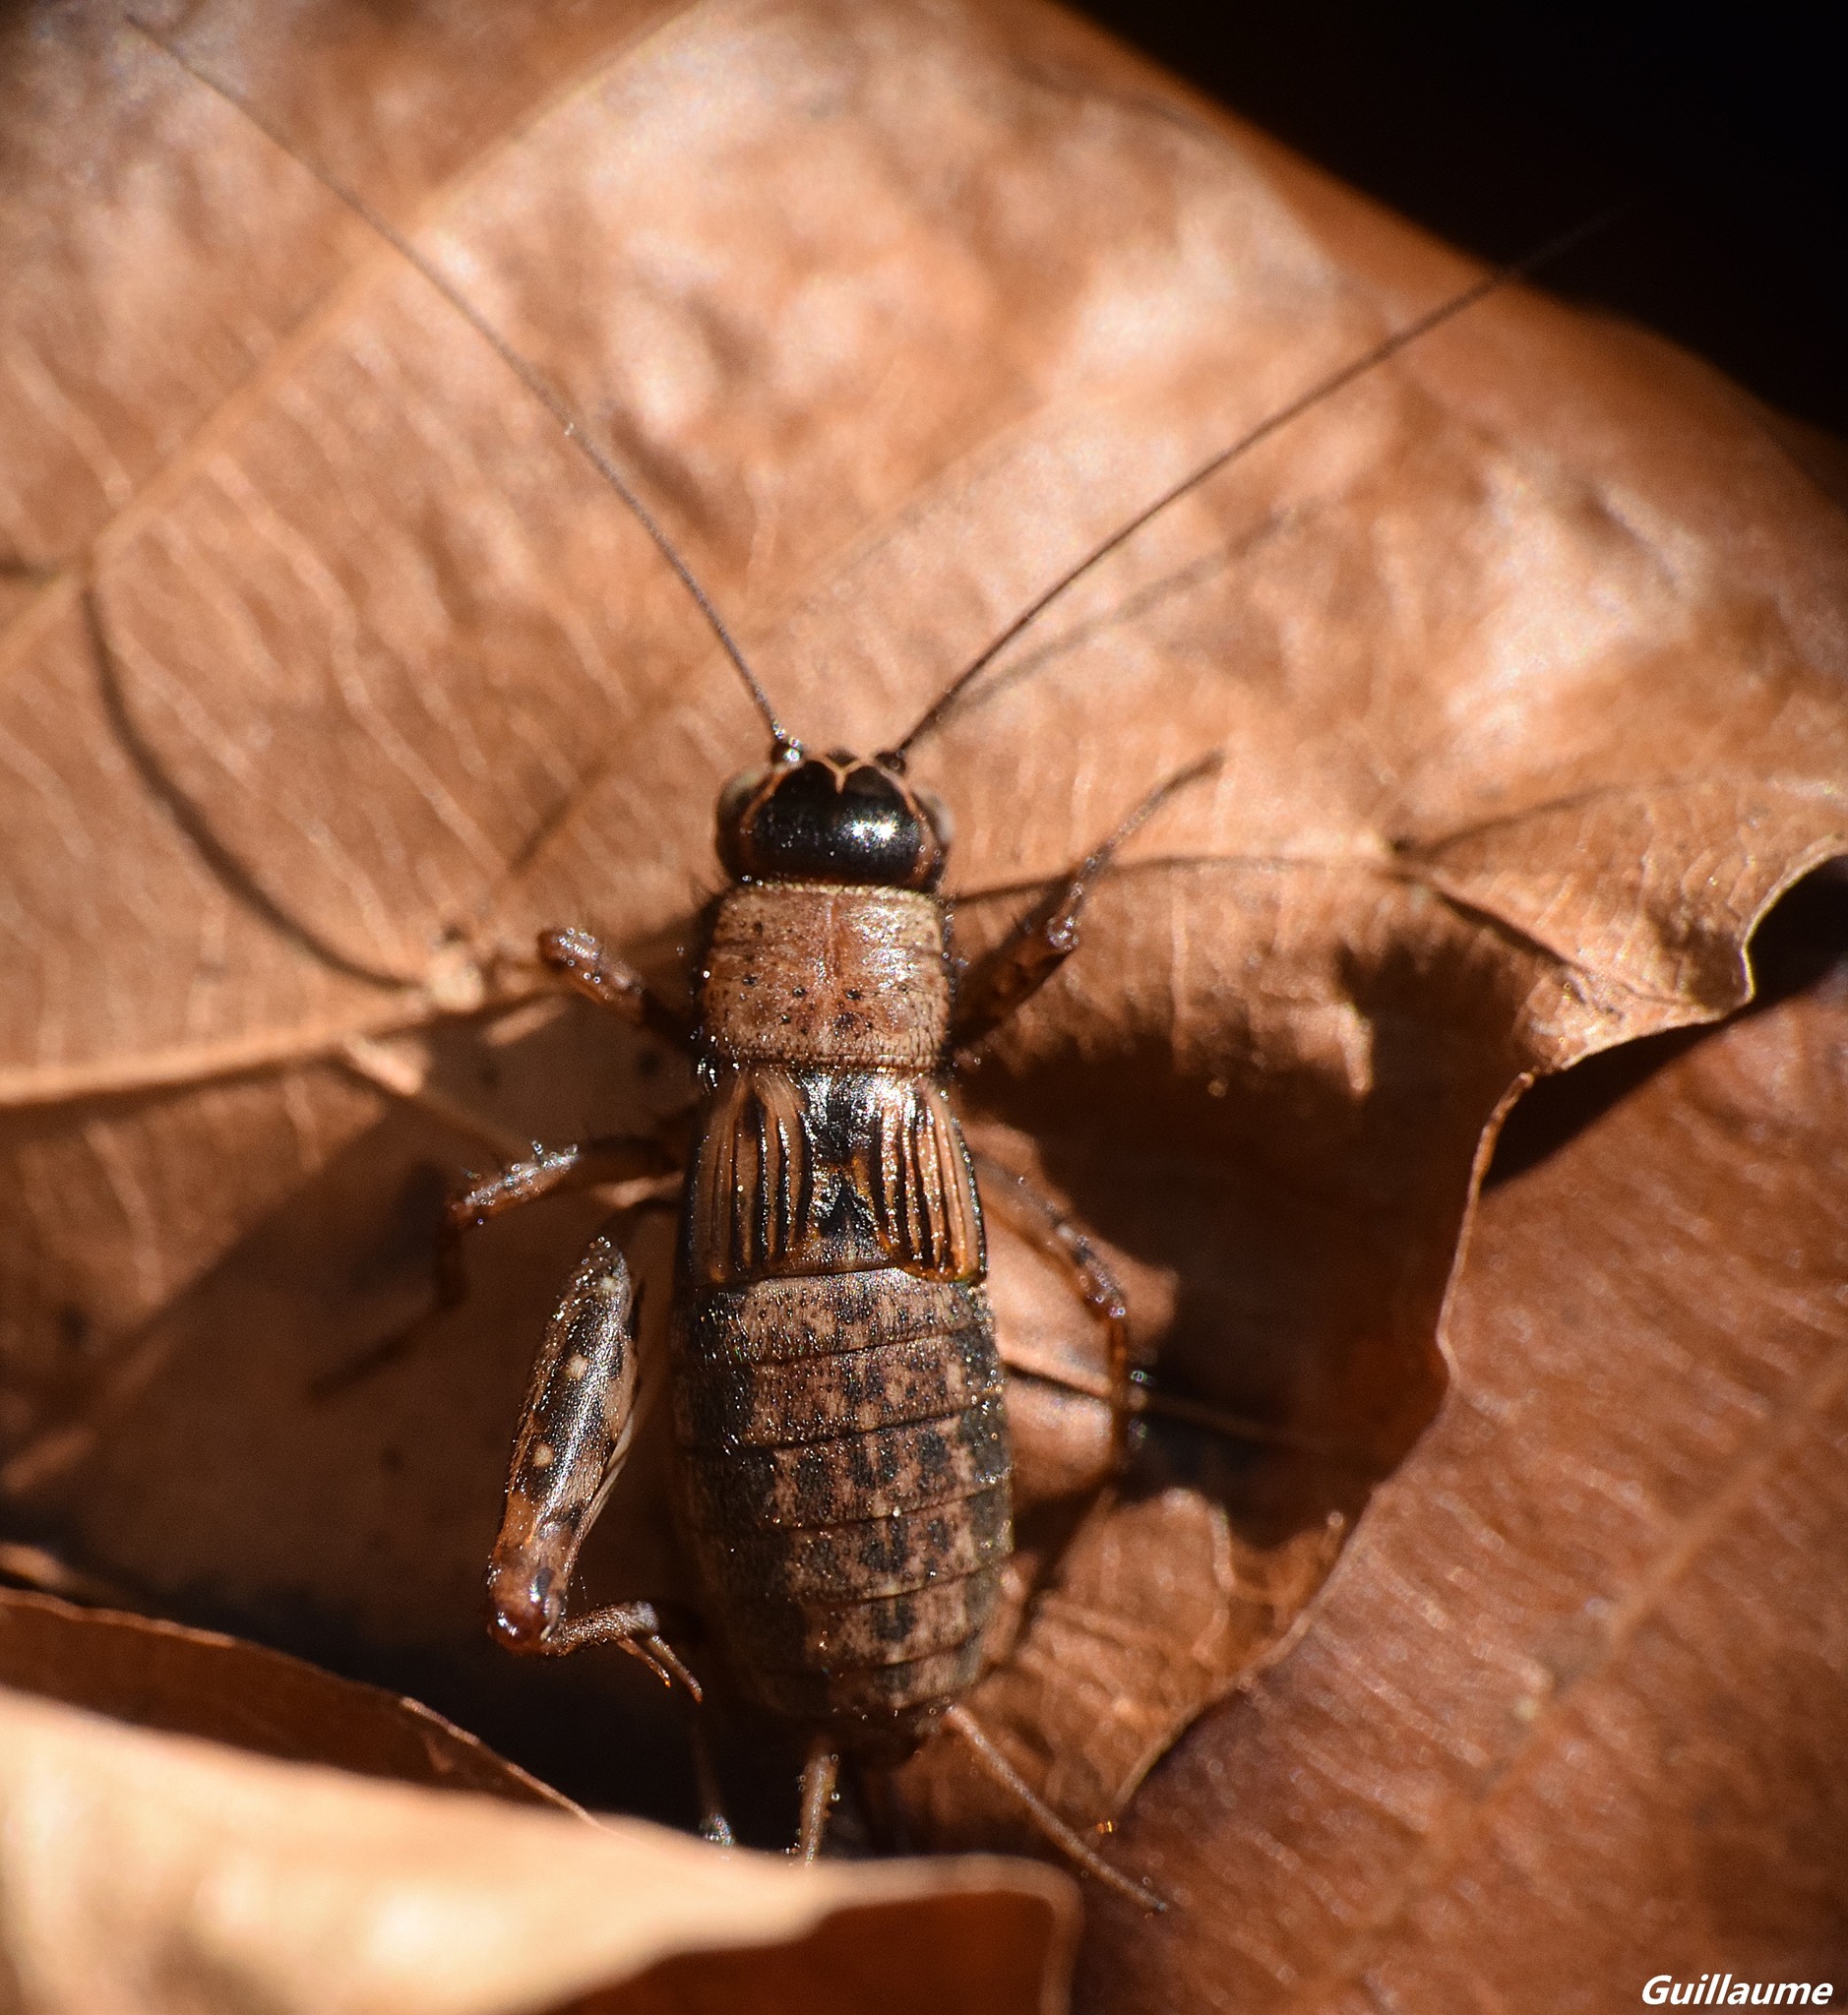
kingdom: Animalia
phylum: Arthropoda
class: Insecta
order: Orthoptera
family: Trigonidiidae
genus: Nemobius
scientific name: Nemobius sylvestris
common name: Wood-cricket
